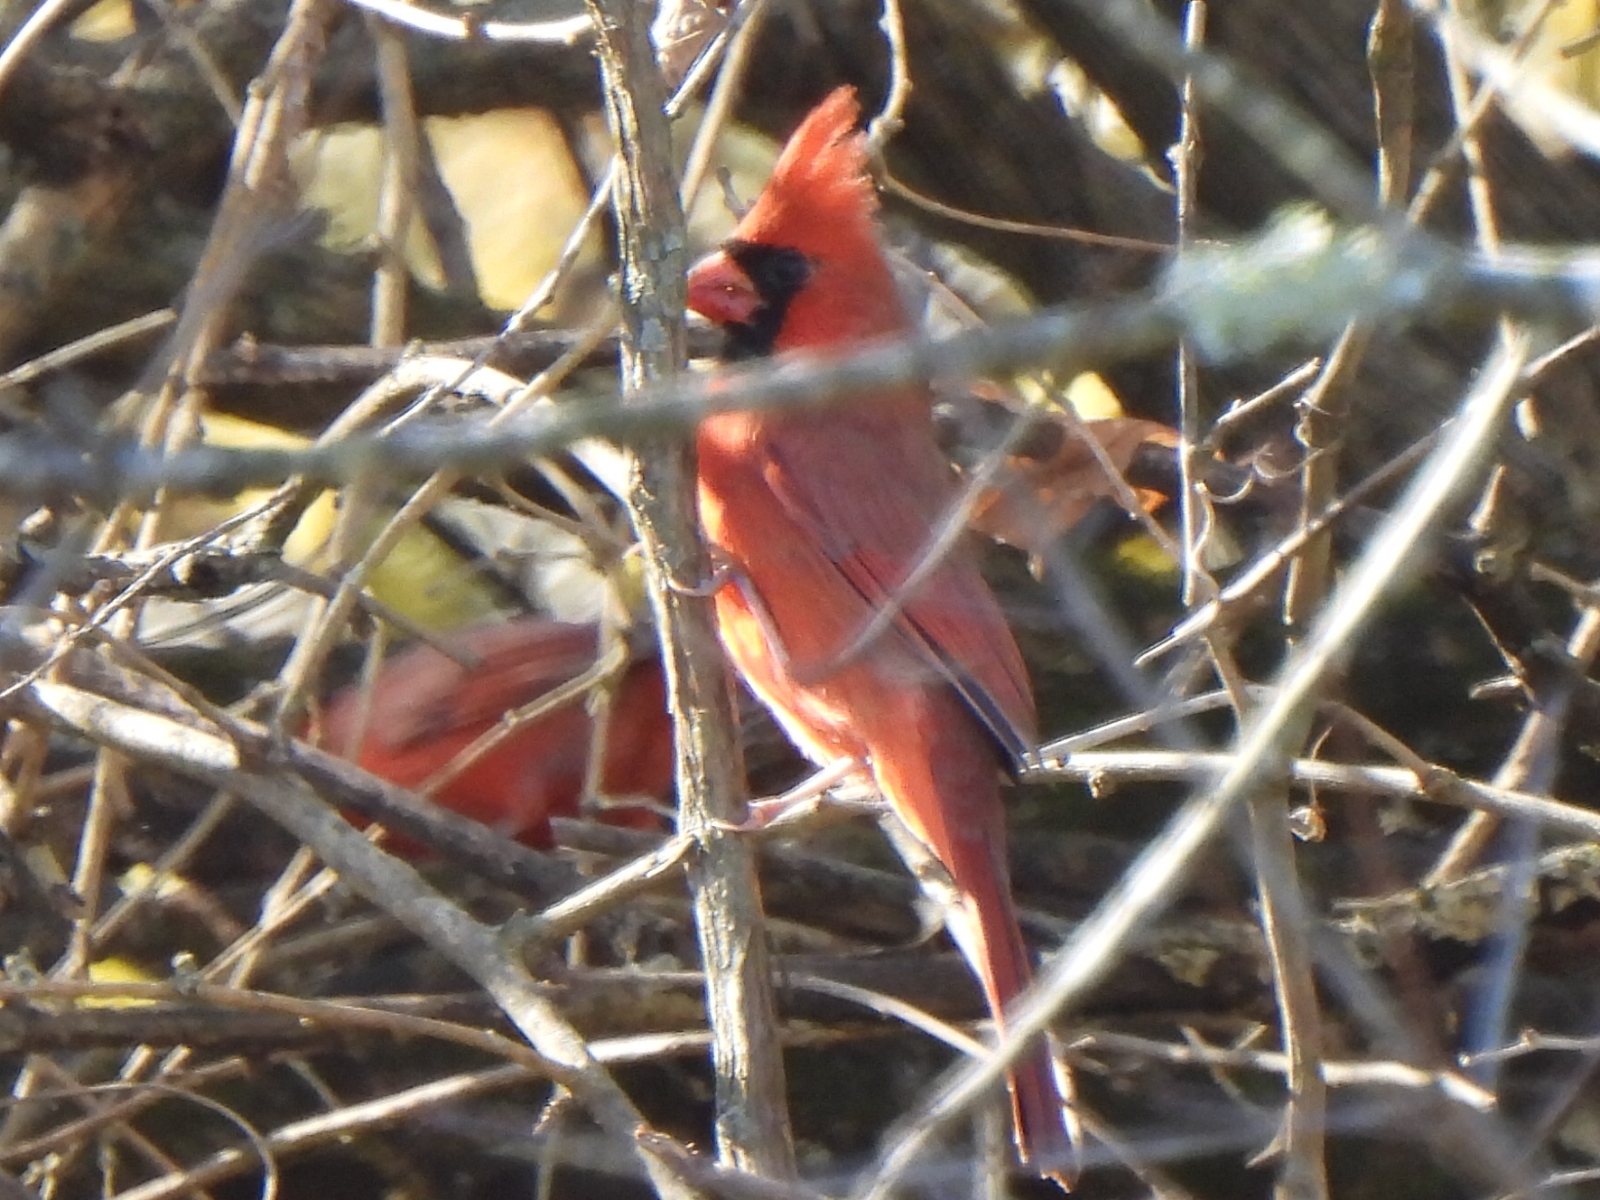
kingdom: Animalia
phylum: Chordata
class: Aves
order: Passeriformes
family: Cardinalidae
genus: Cardinalis
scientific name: Cardinalis cardinalis
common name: Northern cardinal
